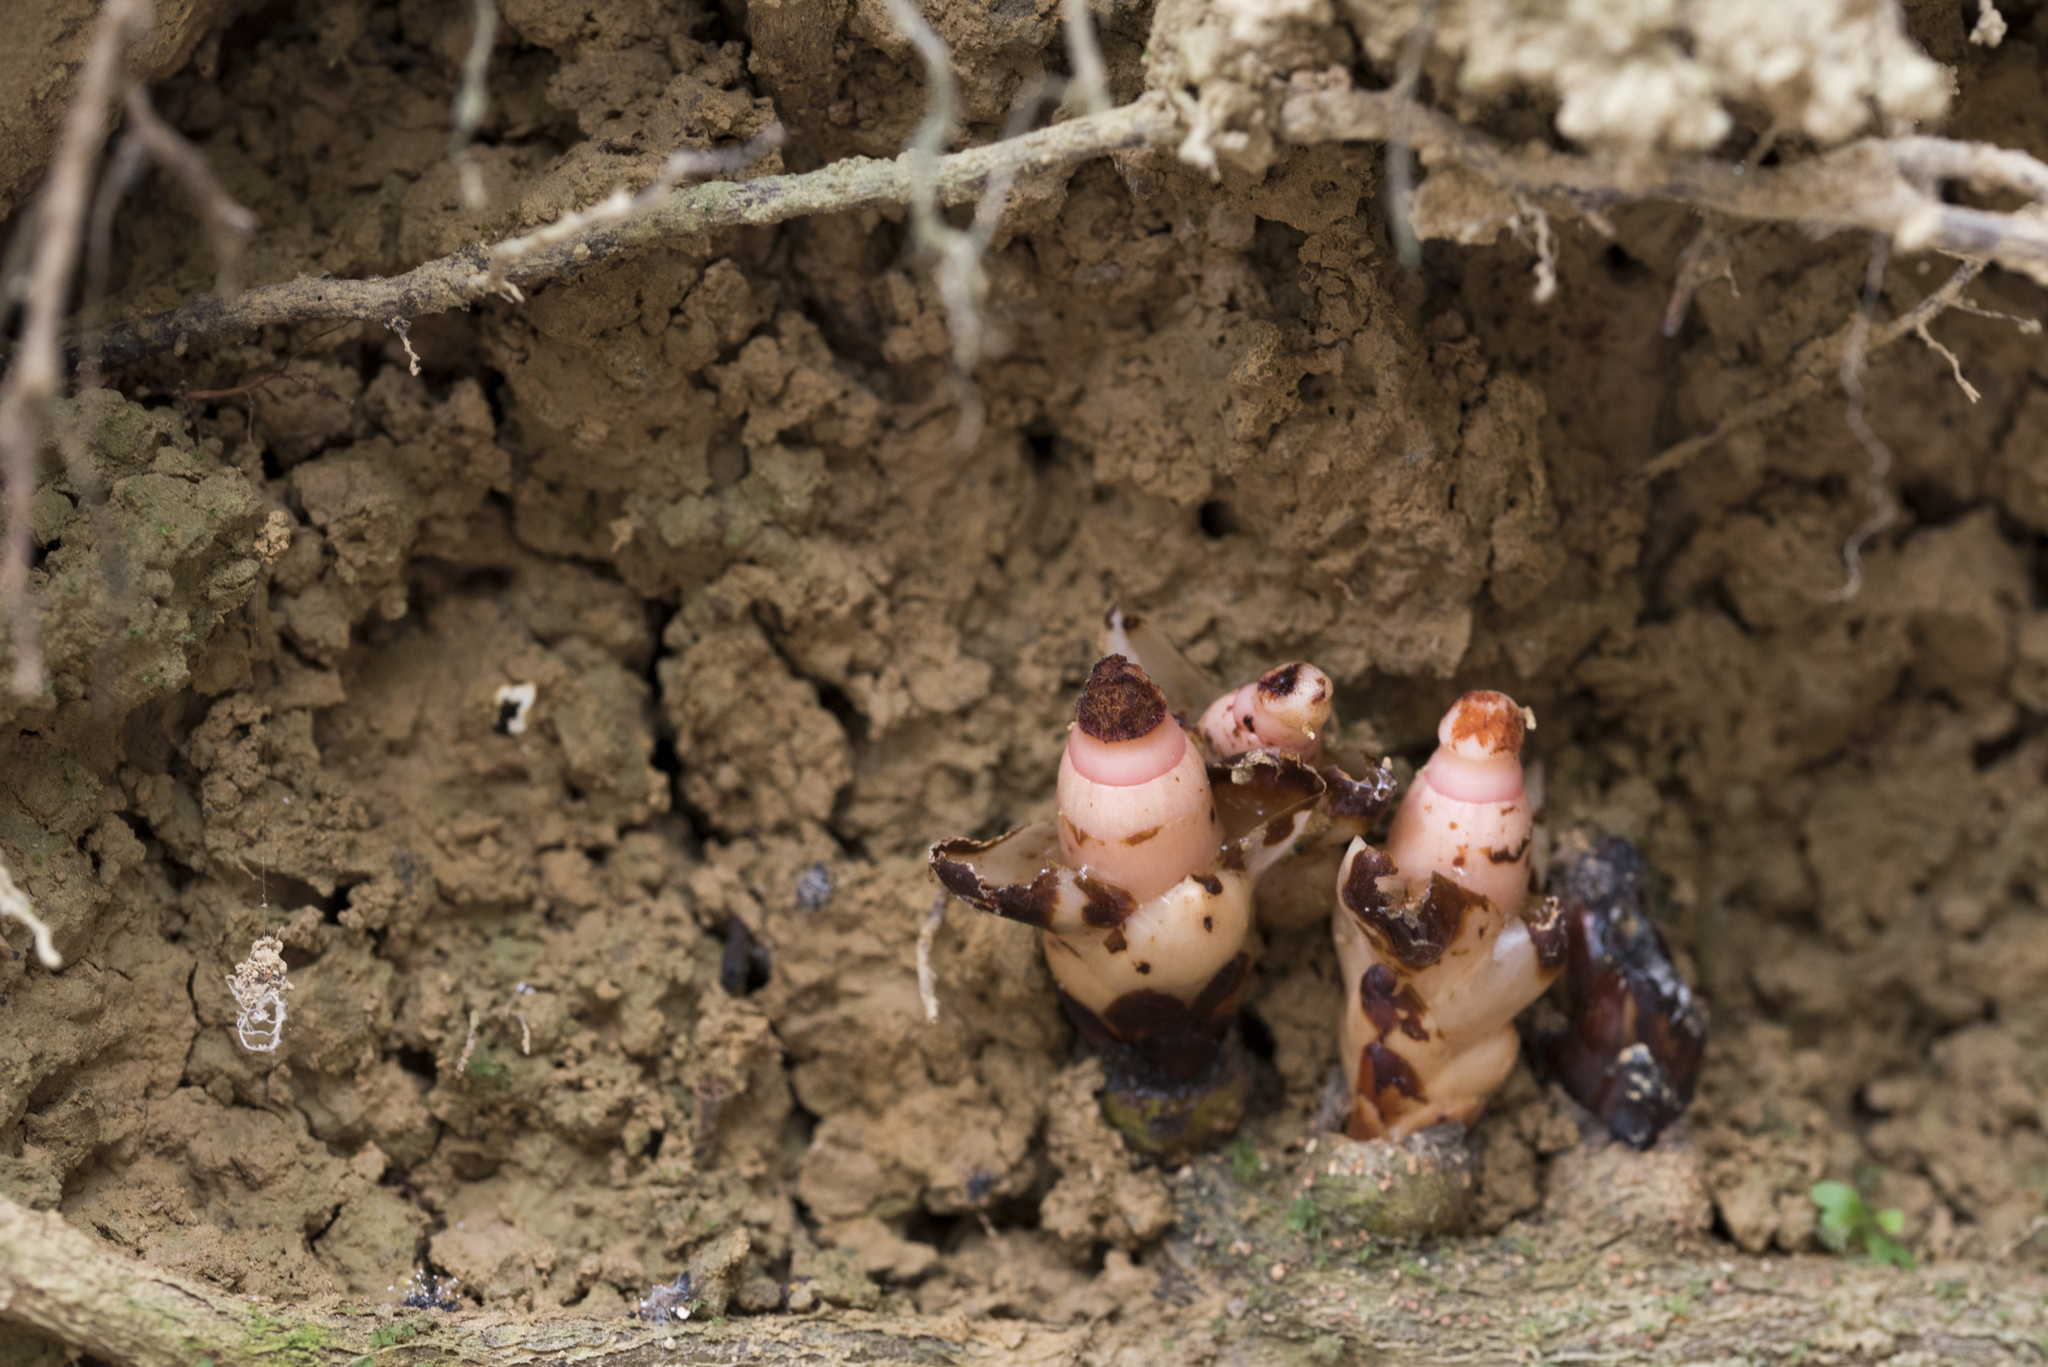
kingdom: Plantae
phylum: Tracheophyta
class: Magnoliopsida
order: Ericales
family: Mitrastemonaceae
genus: Mitrastemon
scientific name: Mitrastemon yamamotoi
